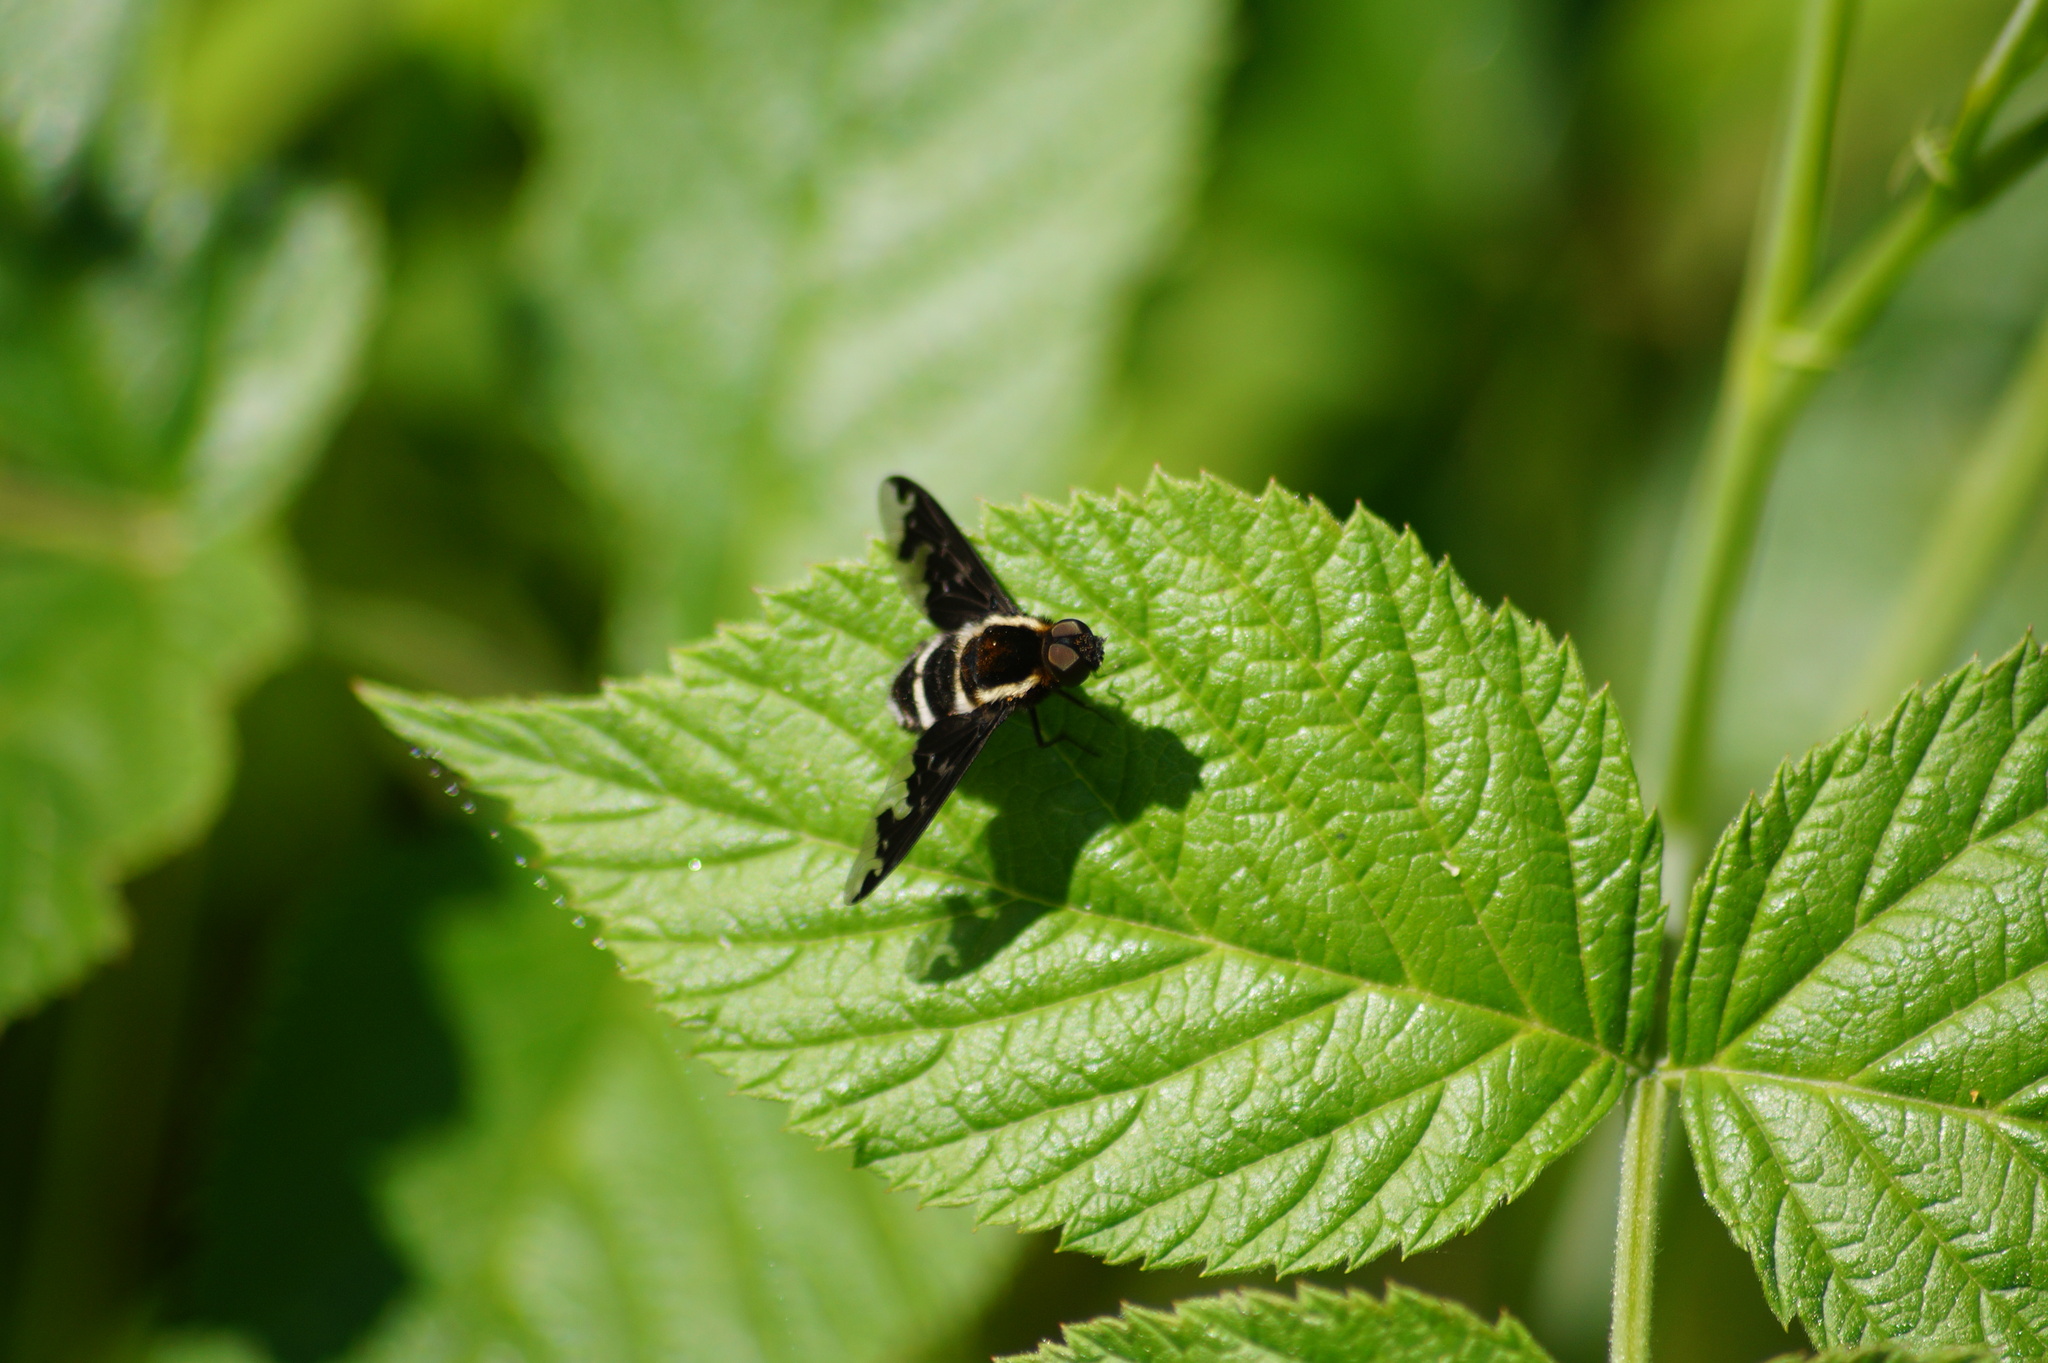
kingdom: Animalia
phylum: Arthropoda
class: Insecta
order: Diptera
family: Bombyliidae
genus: Hemipenthes
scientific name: Hemipenthes maura
